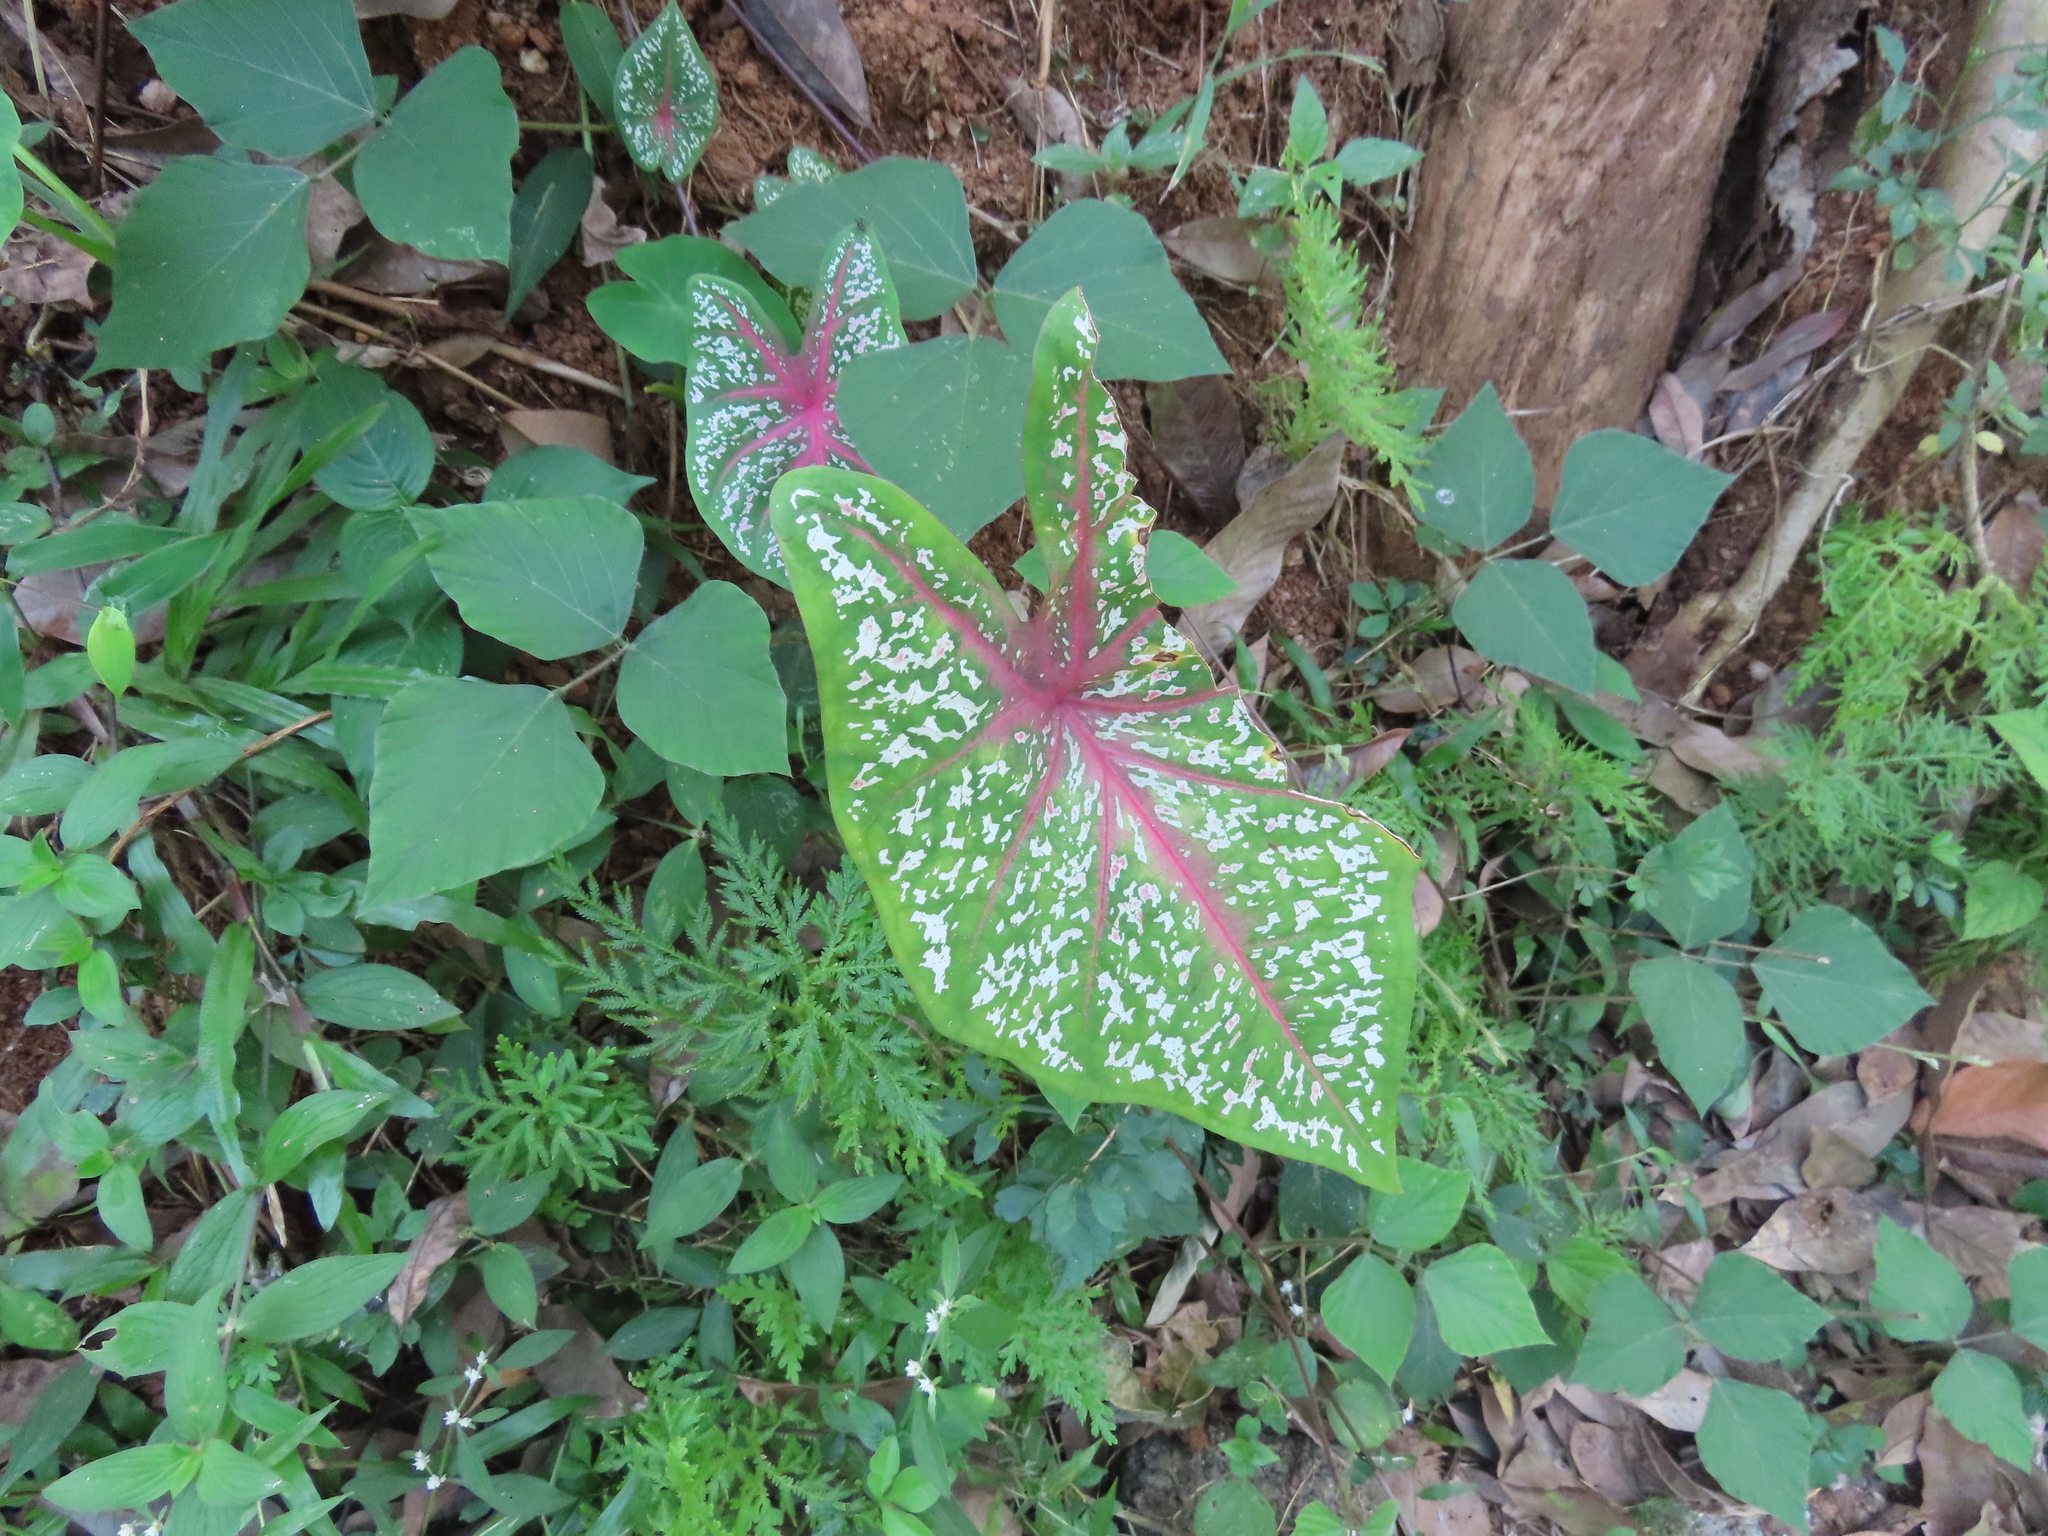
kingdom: Plantae
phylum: Tracheophyta
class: Liliopsida
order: Alismatales
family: Araceae
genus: Caladium
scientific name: Caladium bicolor
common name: Artist's pallet
